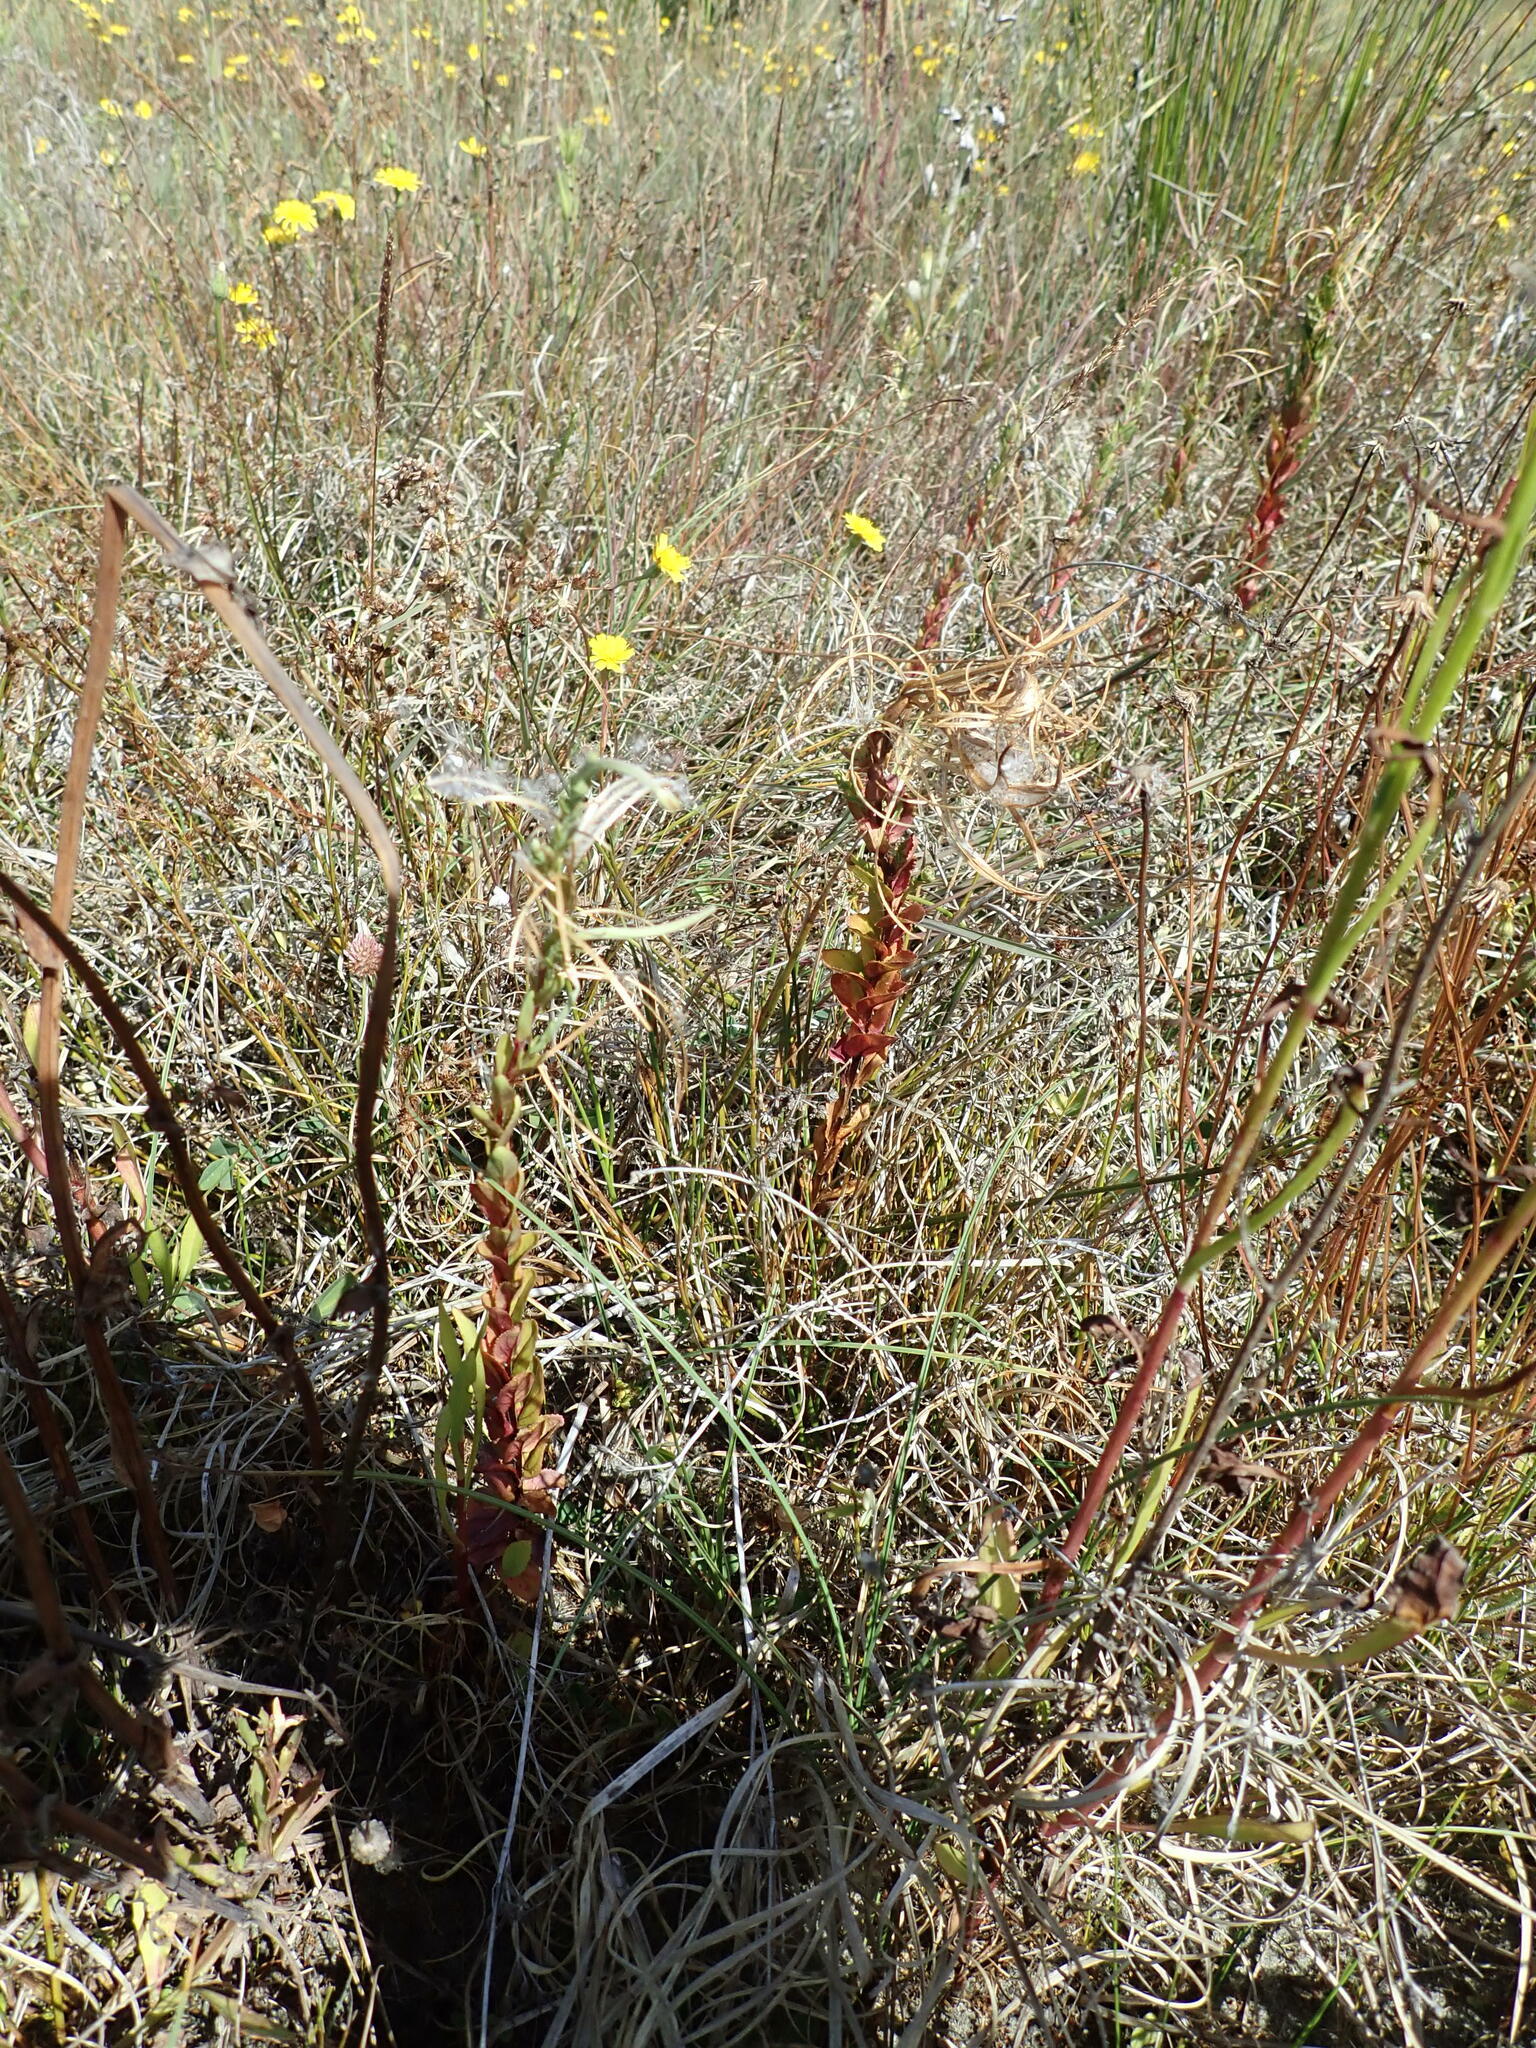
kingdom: Plantae
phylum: Tracheophyta
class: Magnoliopsida
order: Myrtales
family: Onagraceae
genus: Epilobium
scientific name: Epilobium billardiereanum
